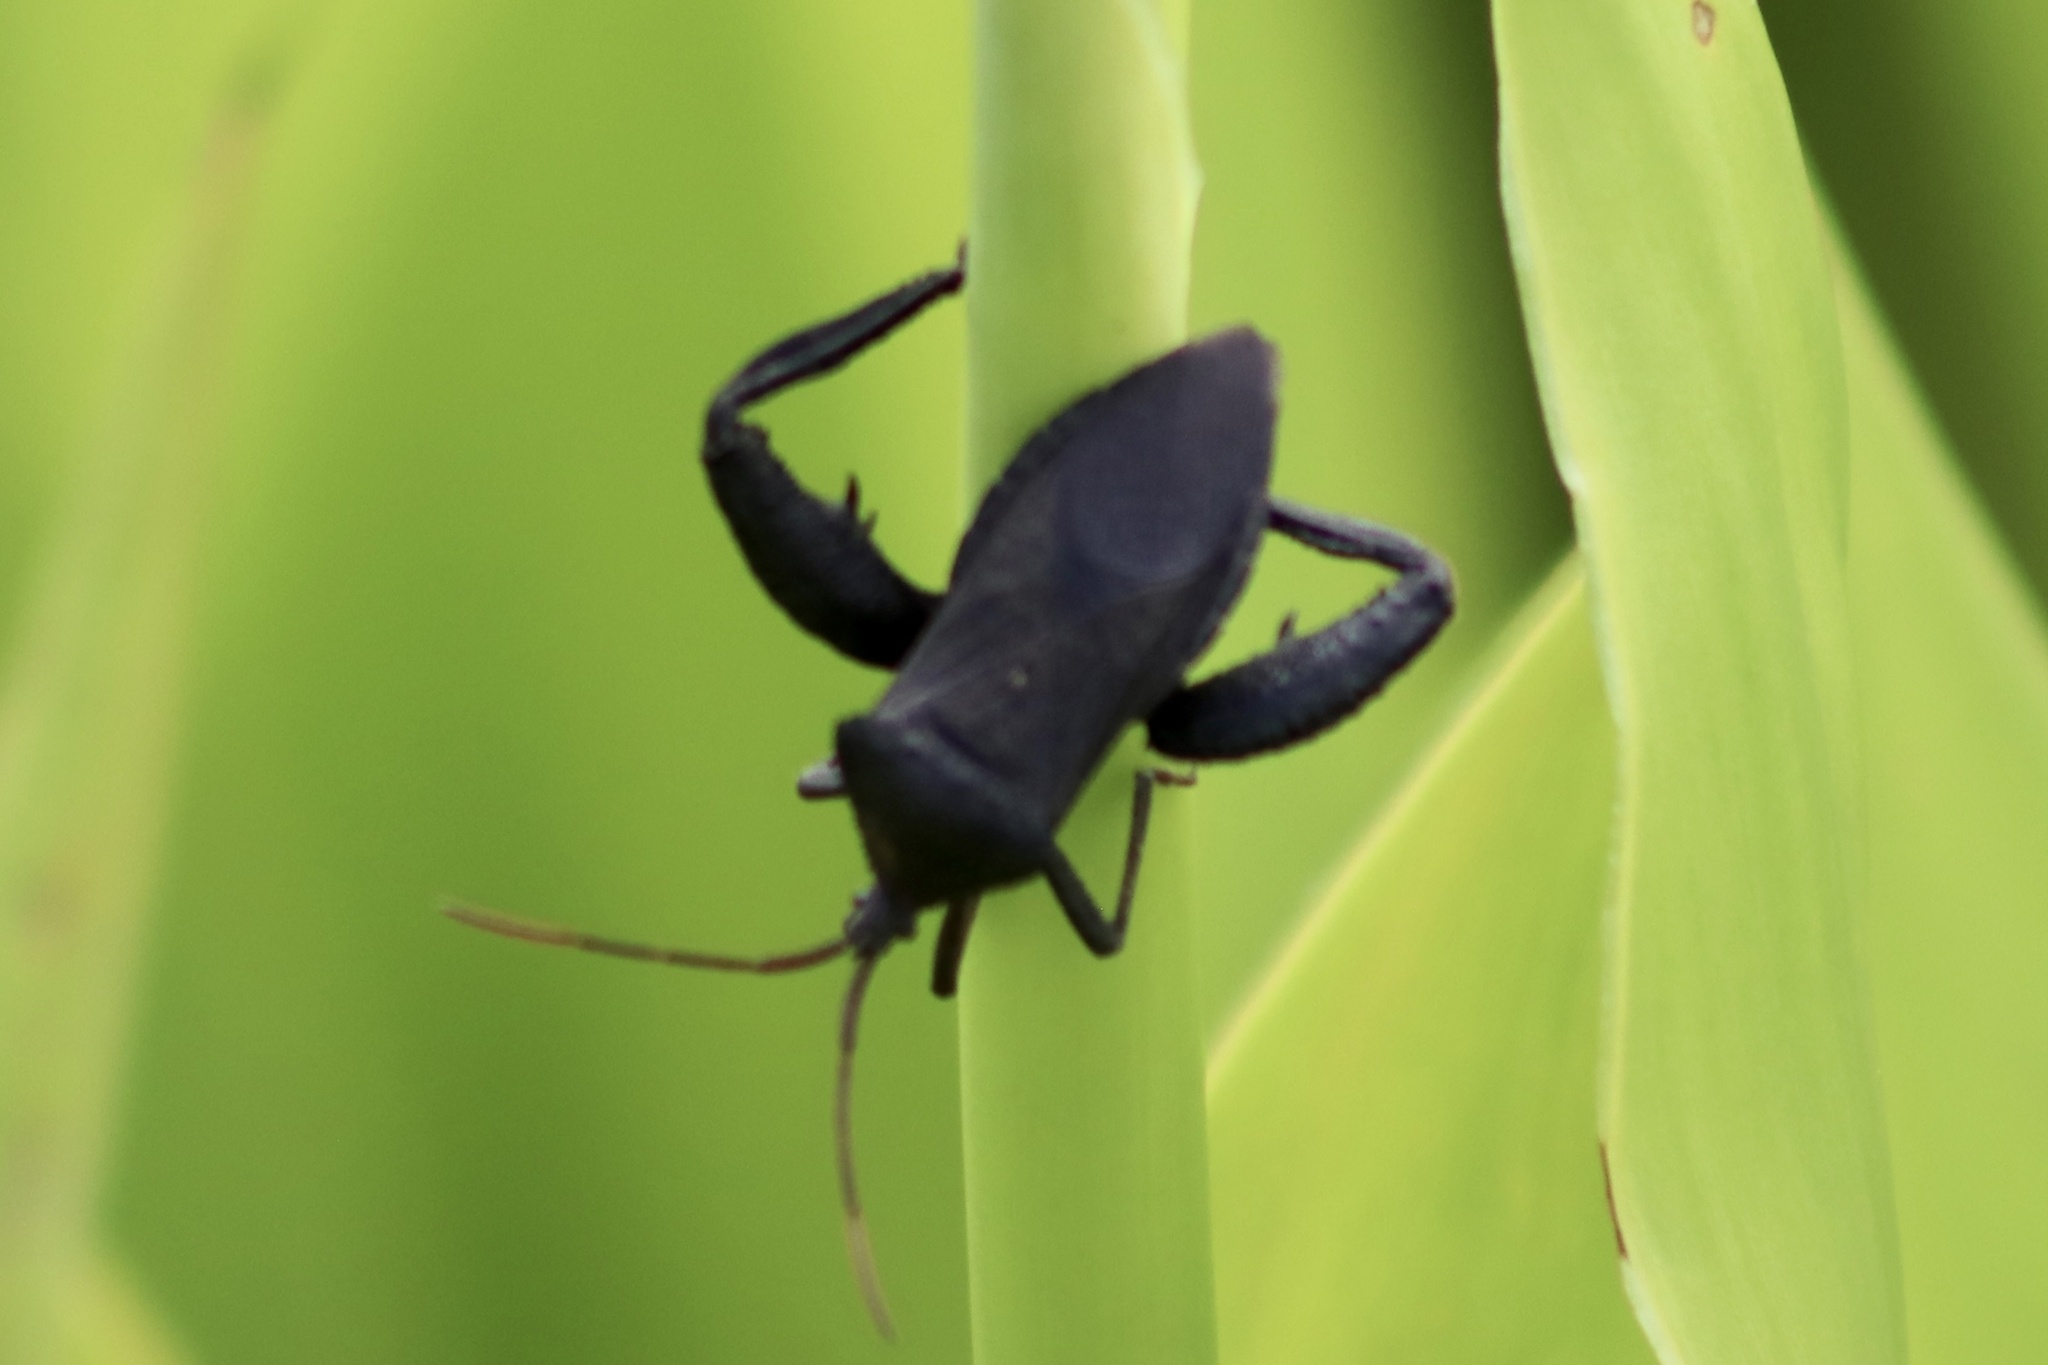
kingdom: Animalia
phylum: Arthropoda
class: Insecta
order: Hemiptera
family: Coreidae
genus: Acanthocephala
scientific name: Acanthocephala femorata
